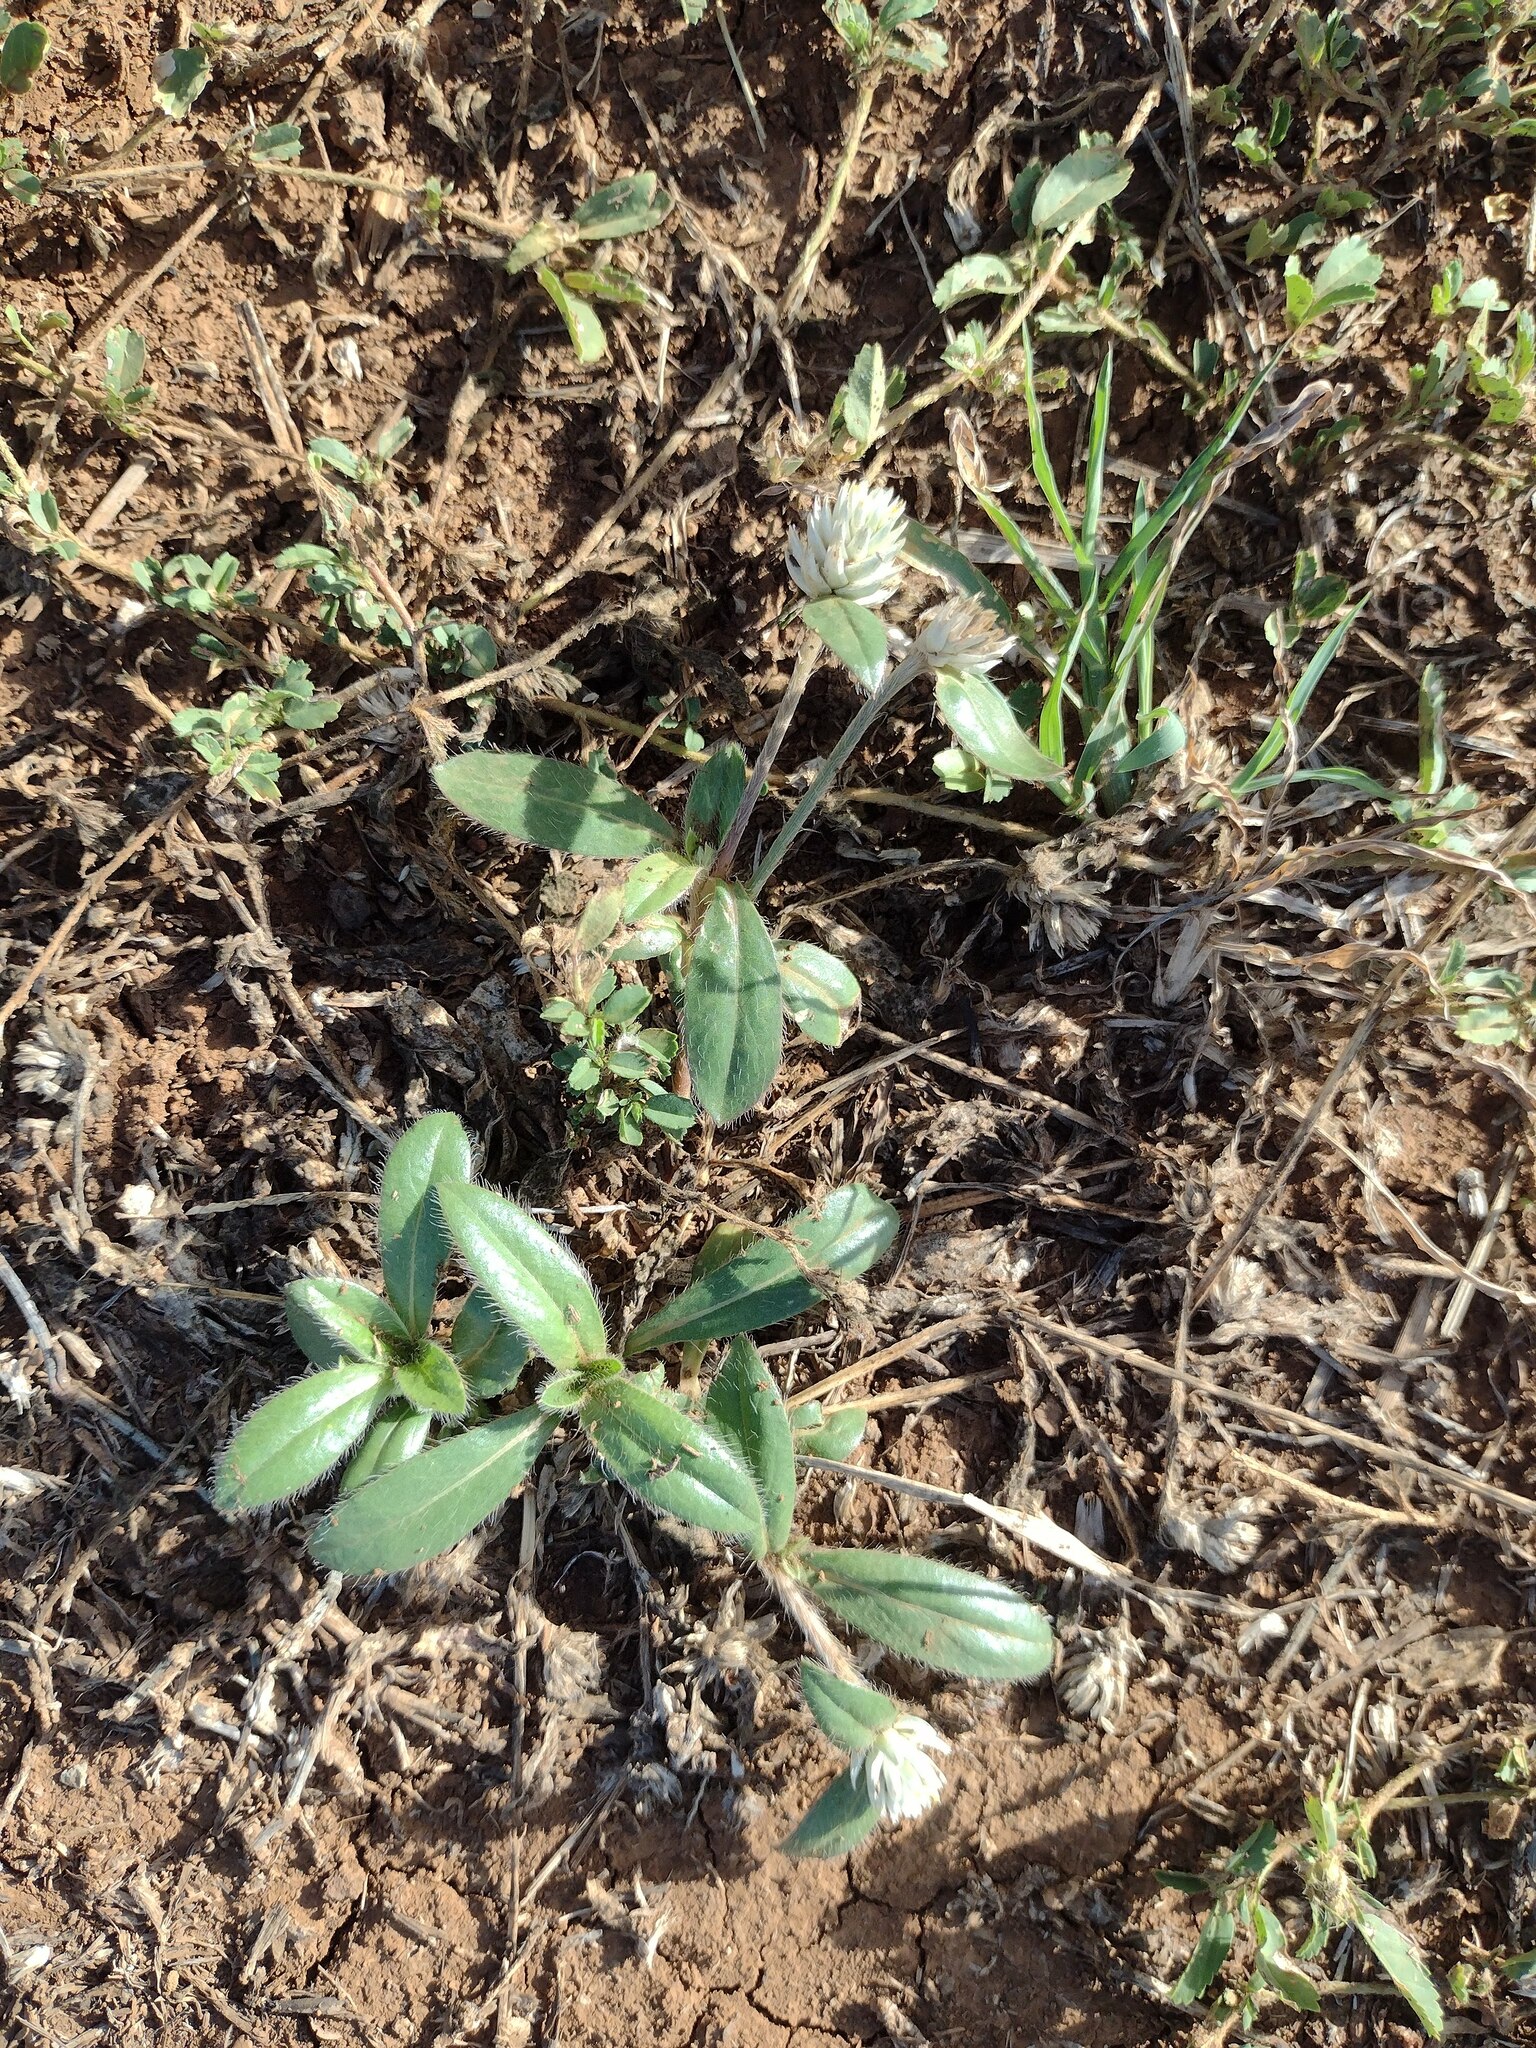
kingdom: Plantae
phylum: Tracheophyta
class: Magnoliopsida
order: Caryophyllales
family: Amaranthaceae
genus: Gomphrena
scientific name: Gomphrena celosioides
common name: Gomphrena-weed
